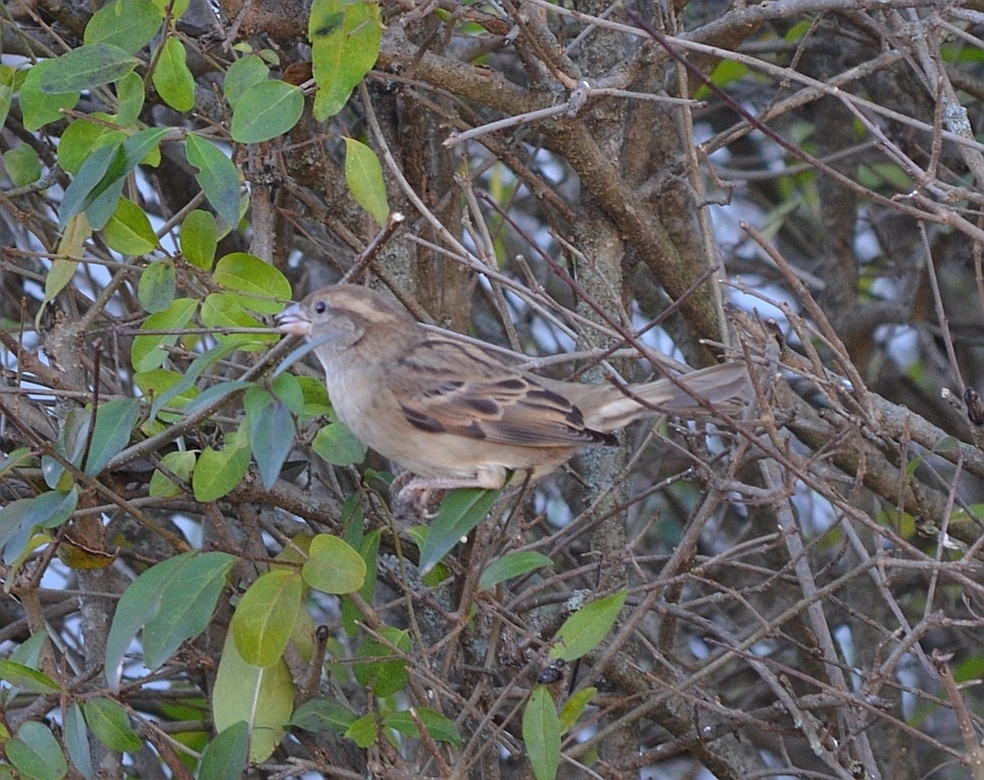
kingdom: Animalia
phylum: Chordata
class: Aves
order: Passeriformes
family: Passeridae
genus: Passer
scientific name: Passer domesticus
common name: House sparrow
